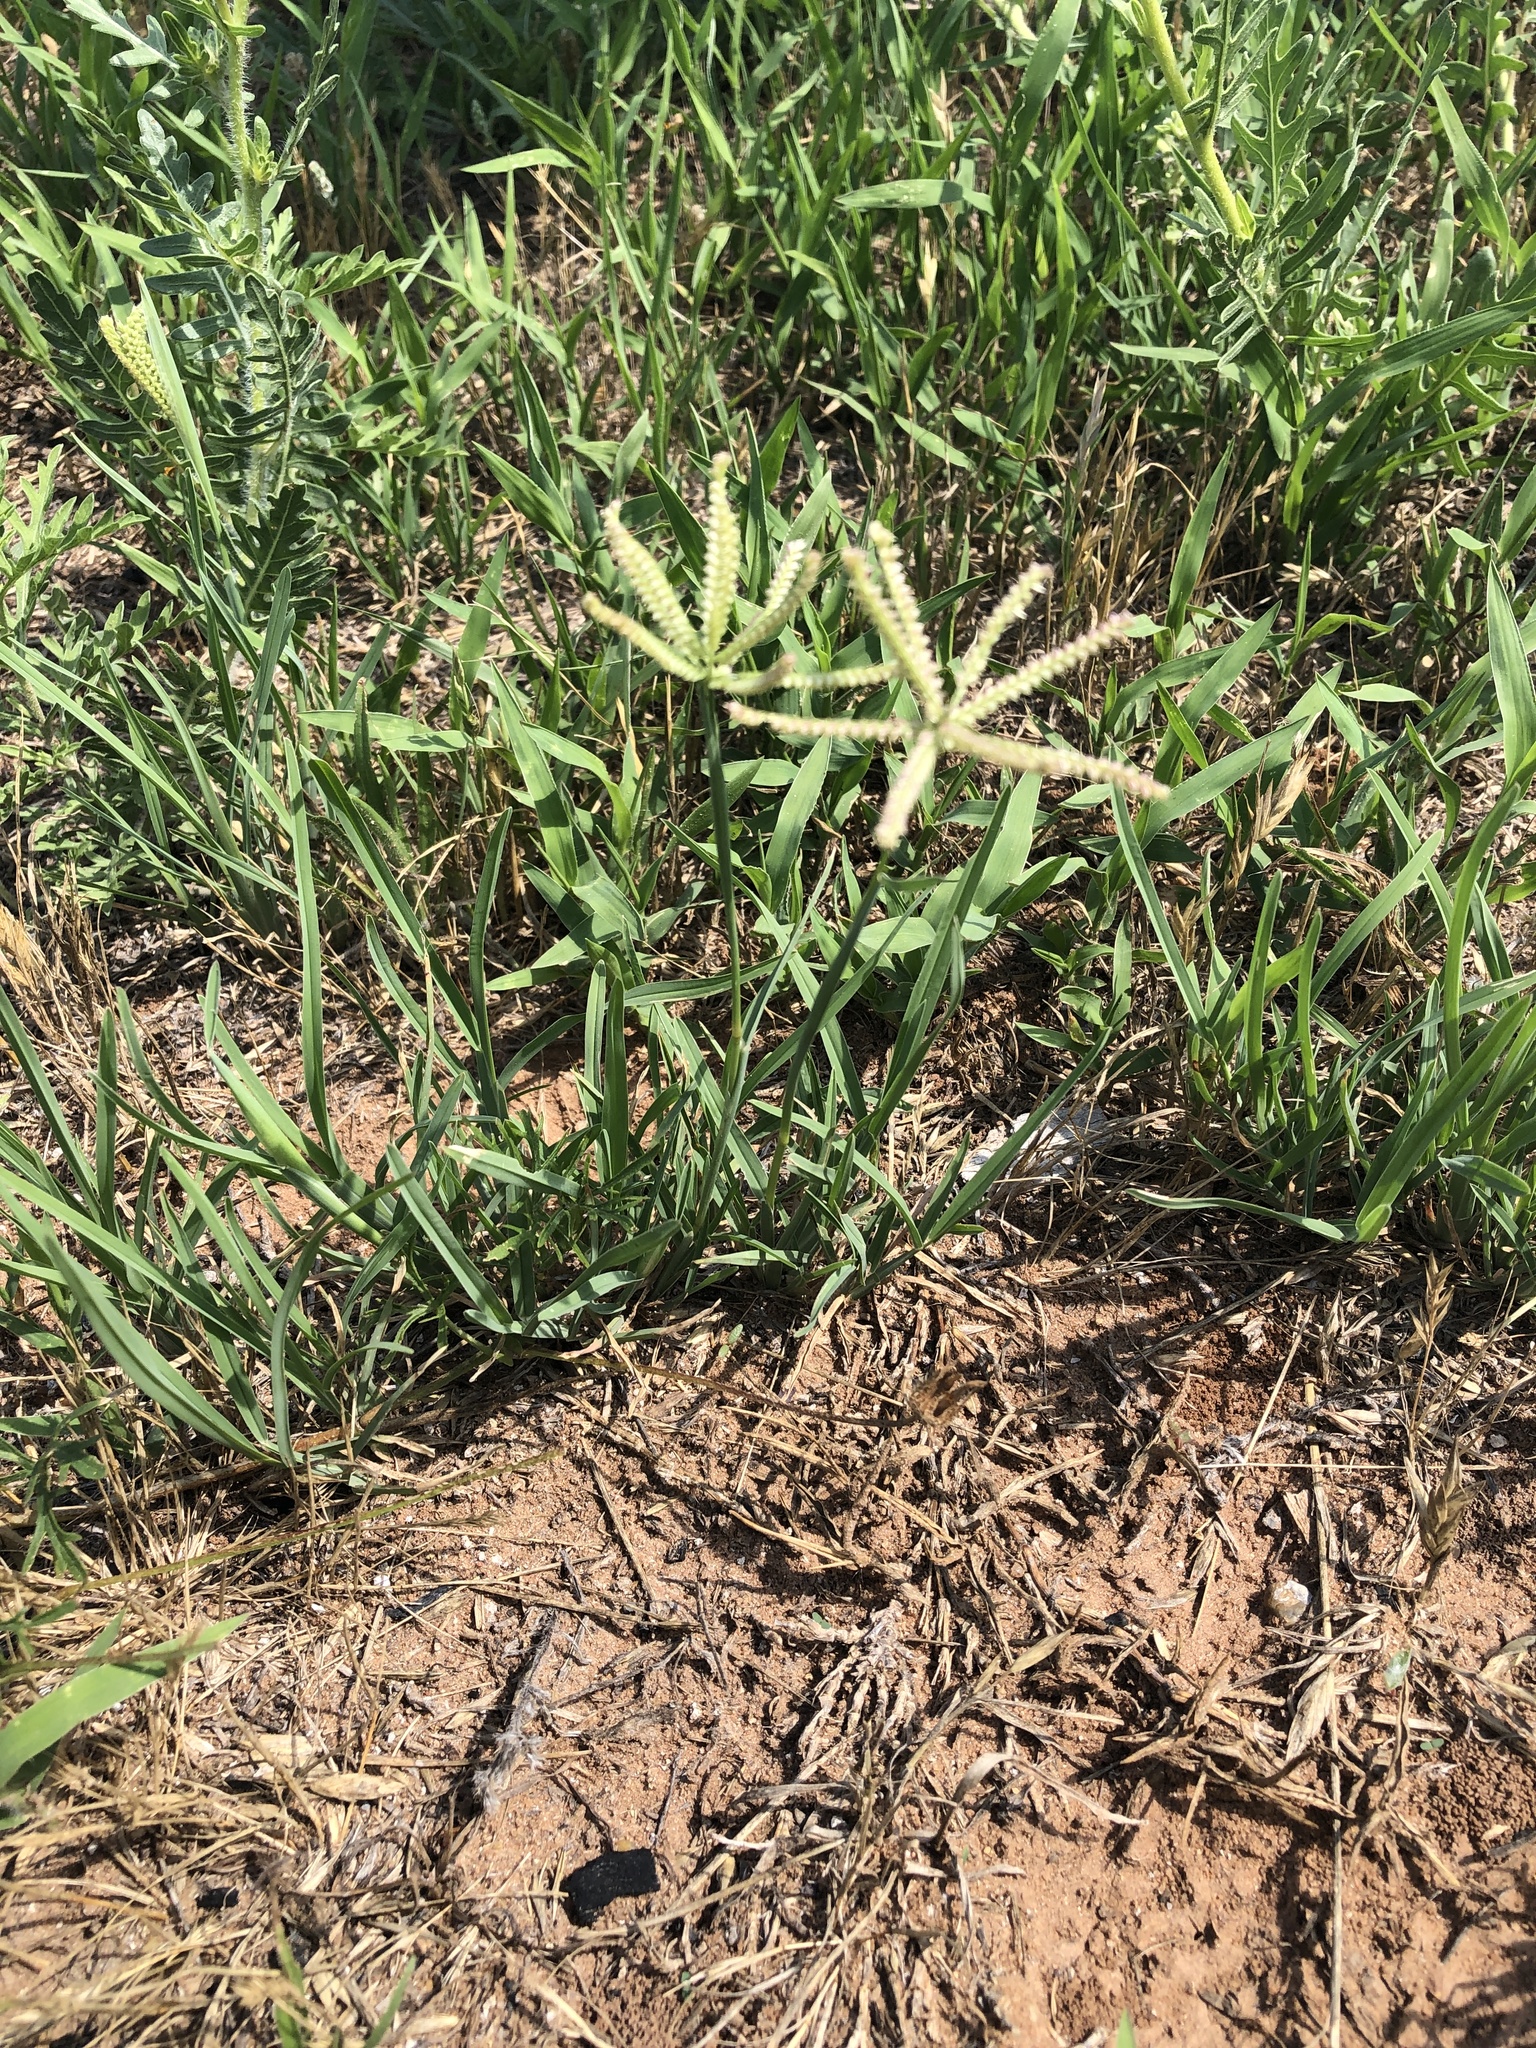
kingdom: Plantae
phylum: Tracheophyta
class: Liliopsida
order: Poales
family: Poaceae
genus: Chloris
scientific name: Chloris cucullata
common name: Hooded windmill grass
